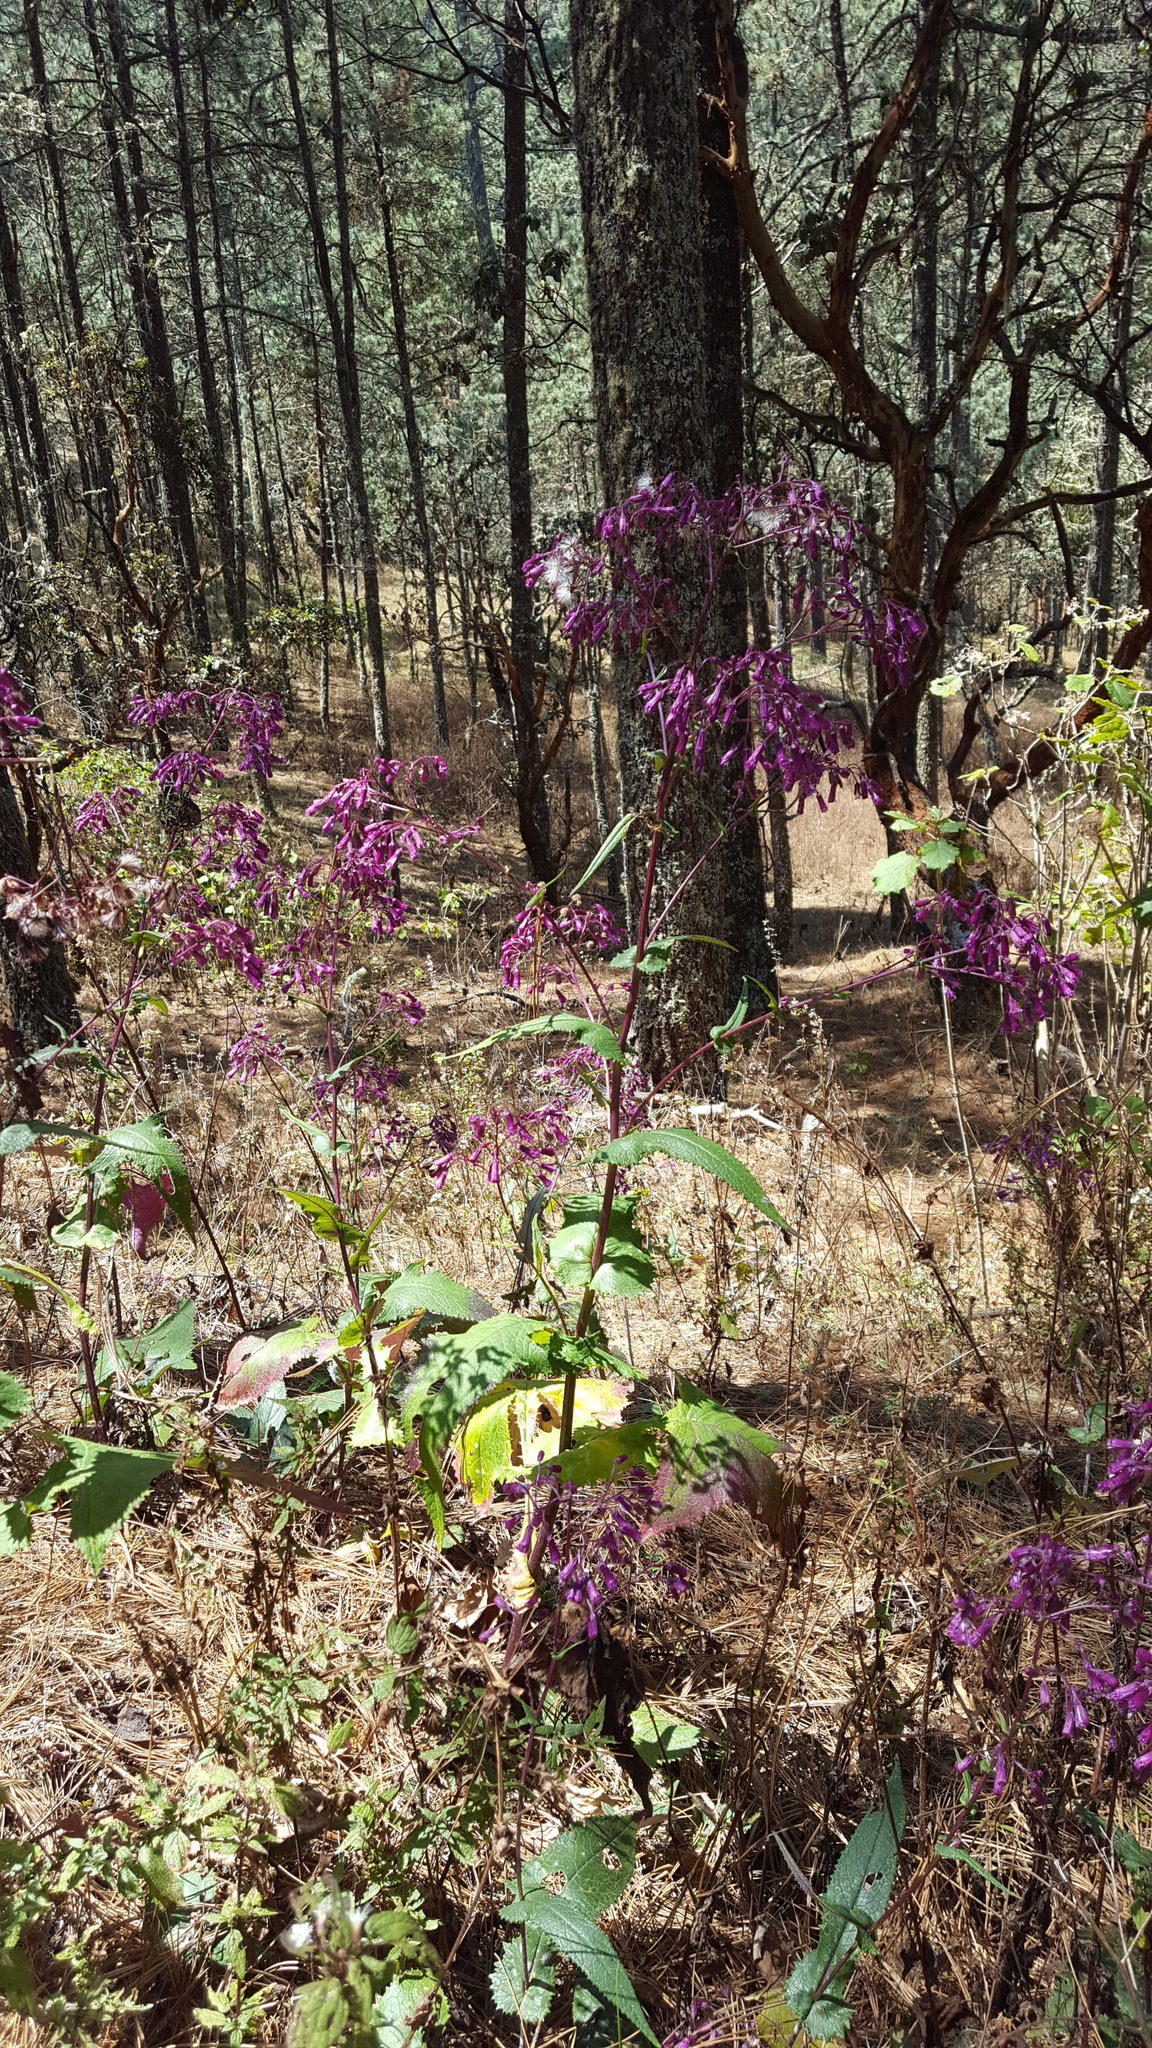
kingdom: Plantae
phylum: Tracheophyta
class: Magnoliopsida
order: Asterales
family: Asteraceae
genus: Senecio
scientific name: Senecio conzattii
